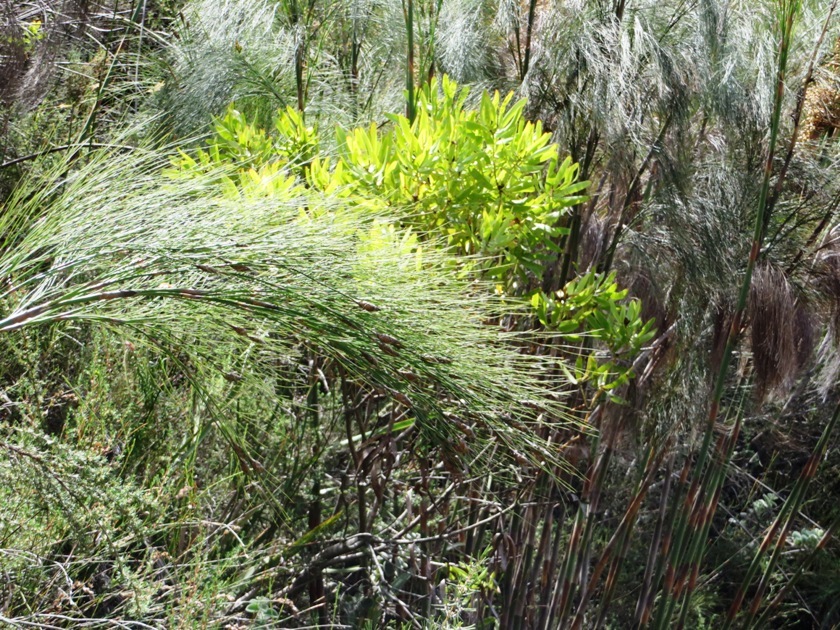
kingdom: Plantae
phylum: Tracheophyta
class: Liliopsida
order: Poales
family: Restionaceae
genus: Cannomois
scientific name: Cannomois grandis
